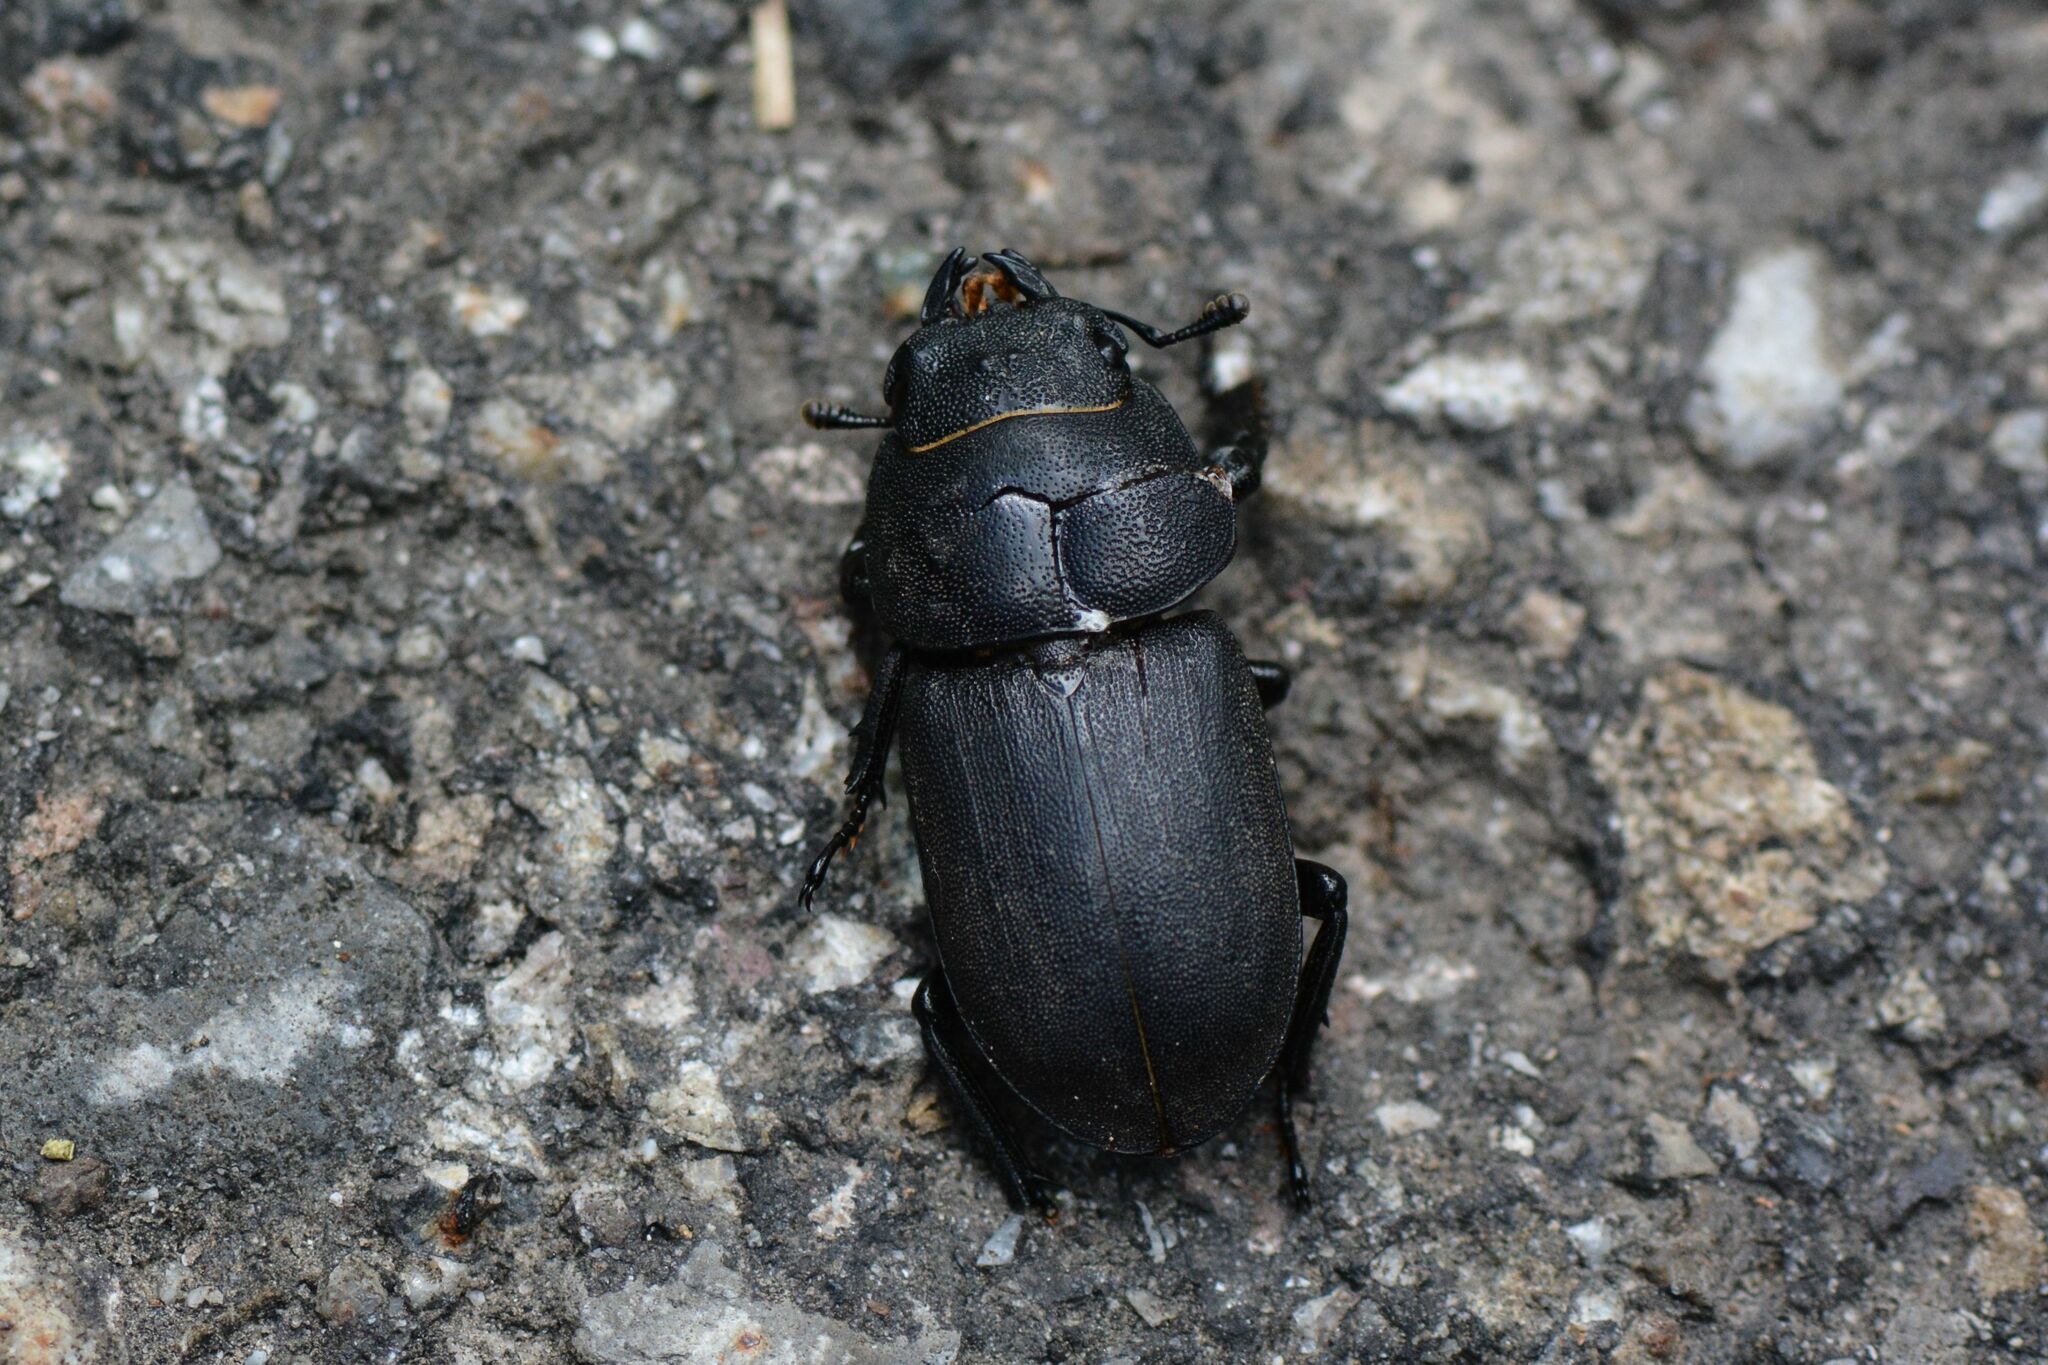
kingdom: Animalia
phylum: Arthropoda
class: Insecta
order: Coleoptera
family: Lucanidae
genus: Dorcus
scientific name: Dorcus parallelipipedus
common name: Lesser stag beetle
